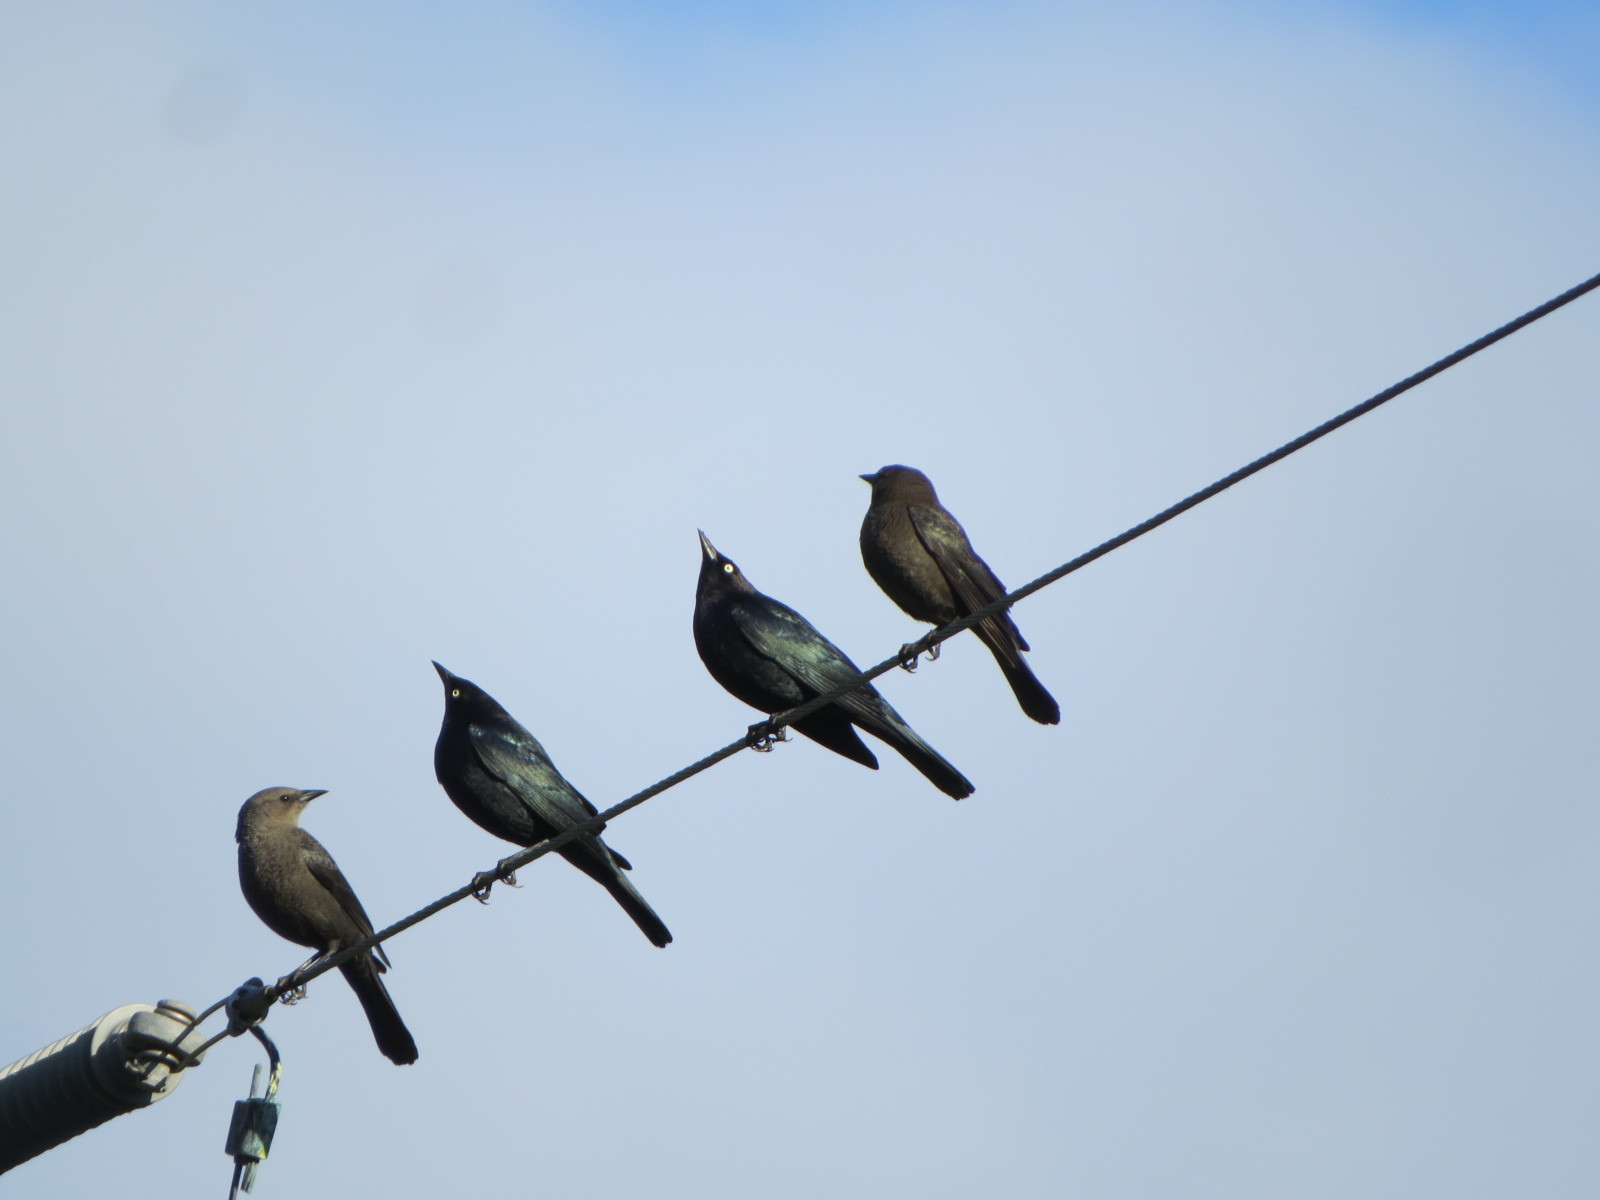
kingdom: Animalia
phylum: Chordata
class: Aves
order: Passeriformes
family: Icteridae
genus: Euphagus
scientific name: Euphagus cyanocephalus
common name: Brewer's blackbird
